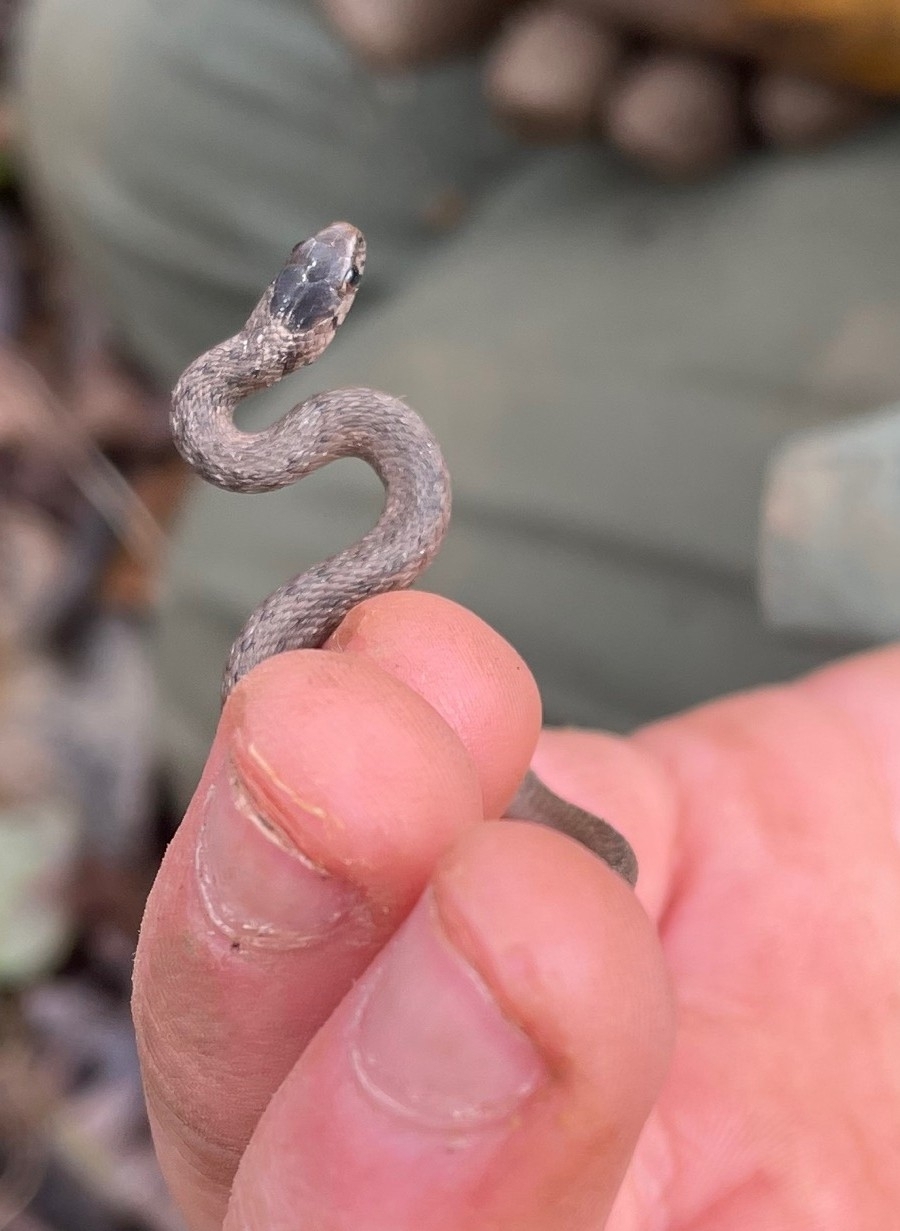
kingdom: Animalia
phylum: Chordata
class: Squamata
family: Colubridae
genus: Storeria
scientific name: Storeria dekayi
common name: (dekay’s) brown snake
